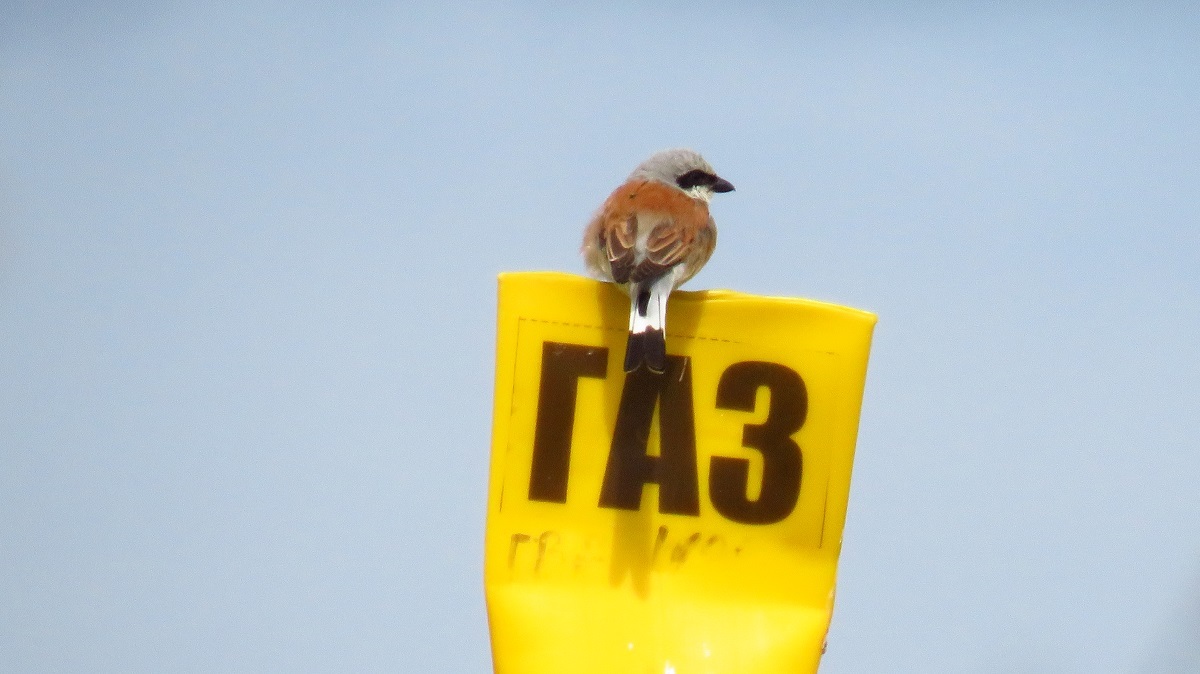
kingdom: Animalia
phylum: Chordata
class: Aves
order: Passeriformes
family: Laniidae
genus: Lanius
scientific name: Lanius collurio
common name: Red-backed shrike
